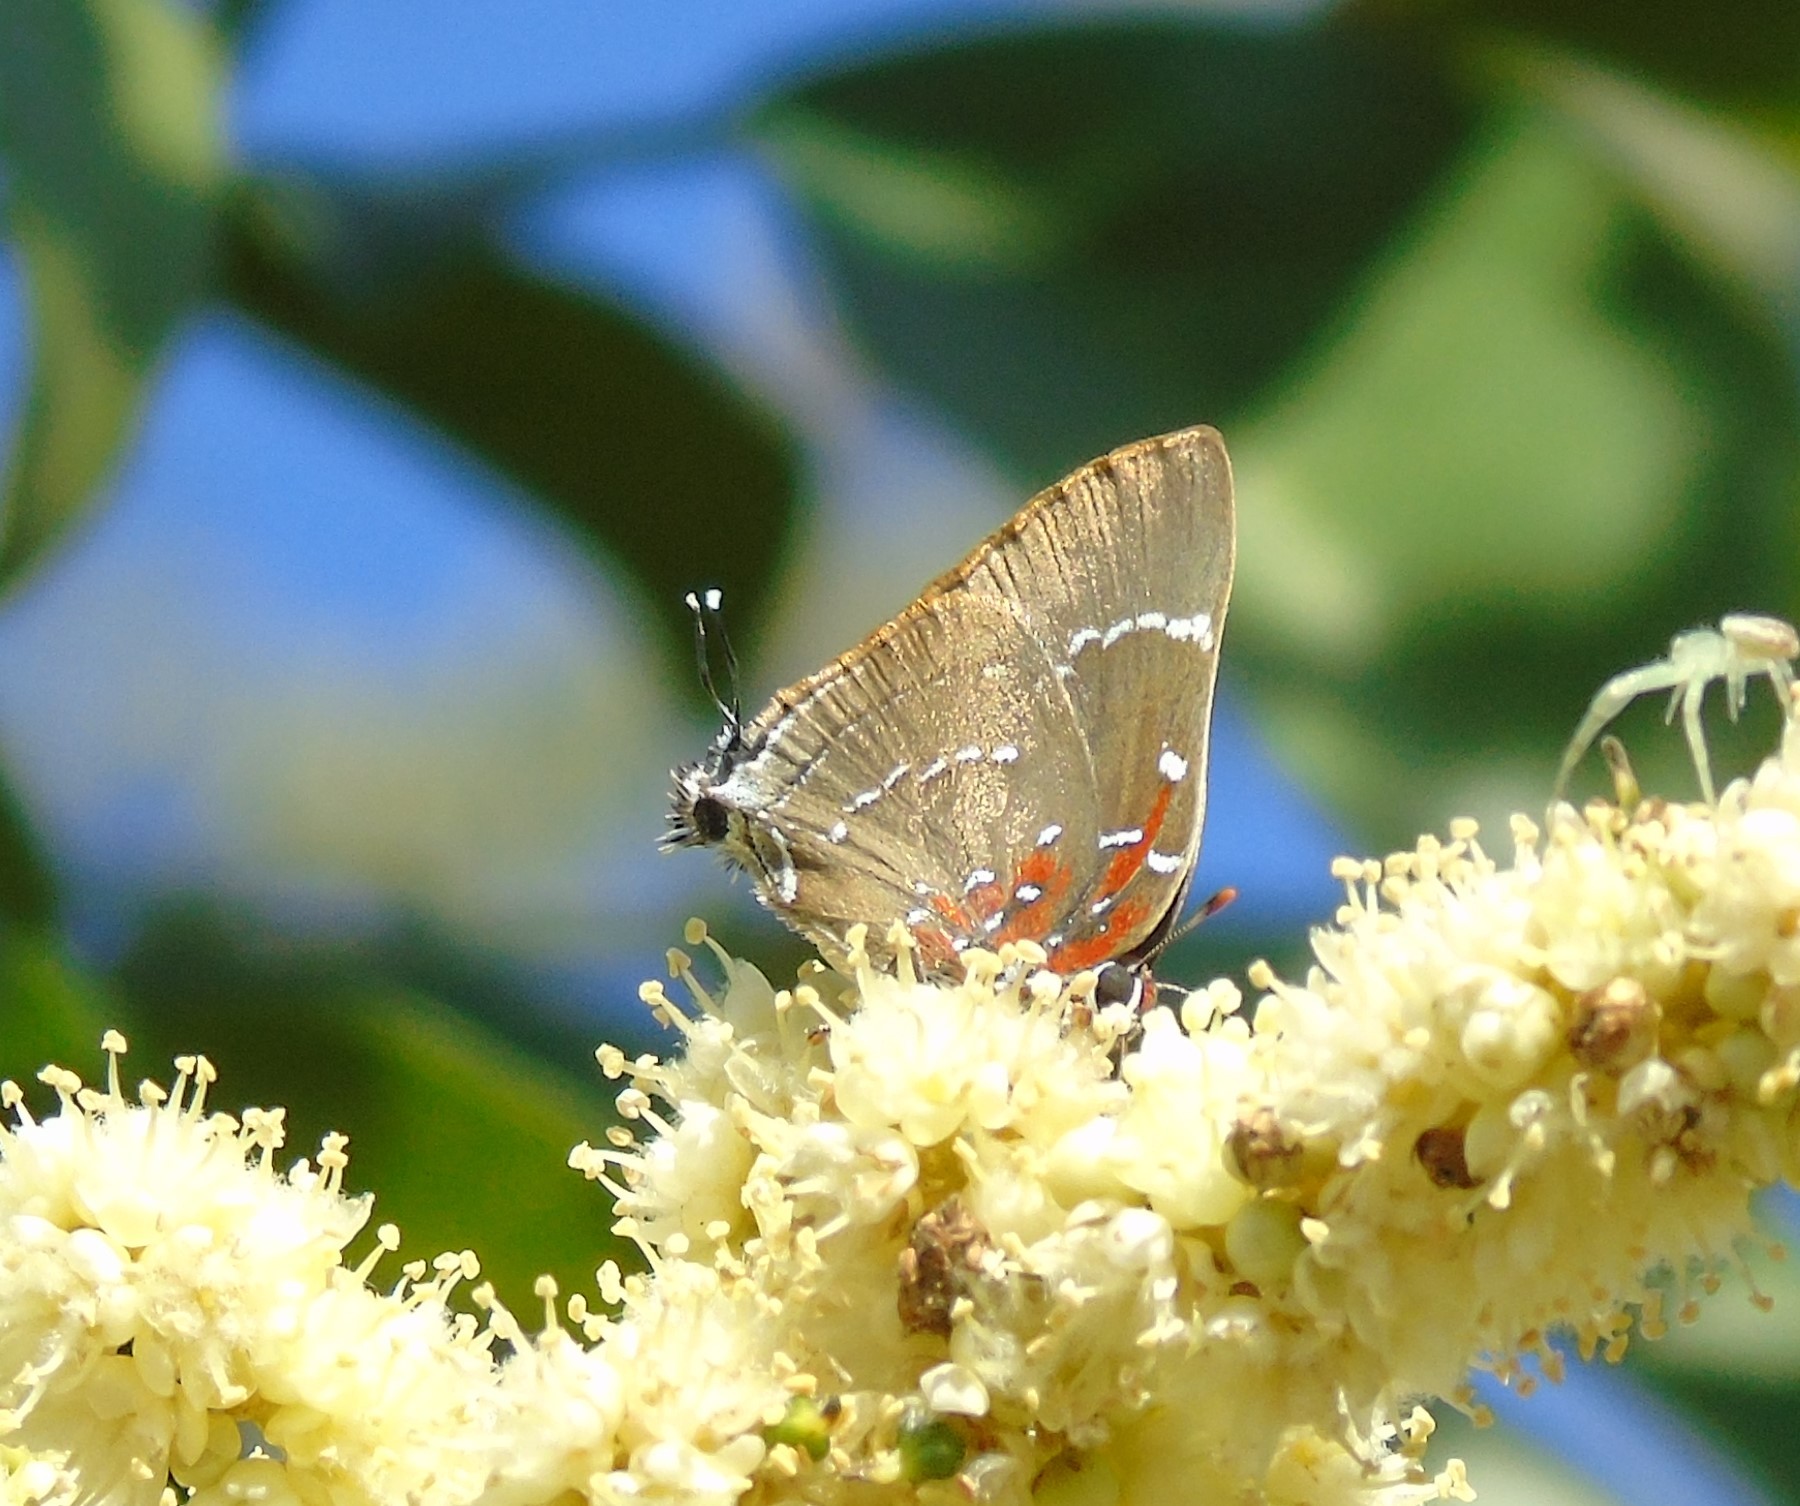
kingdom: Animalia
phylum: Arthropoda
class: Insecta
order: Lepidoptera
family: Lycaenidae
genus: Atlides
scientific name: Atlides Brangas neora
